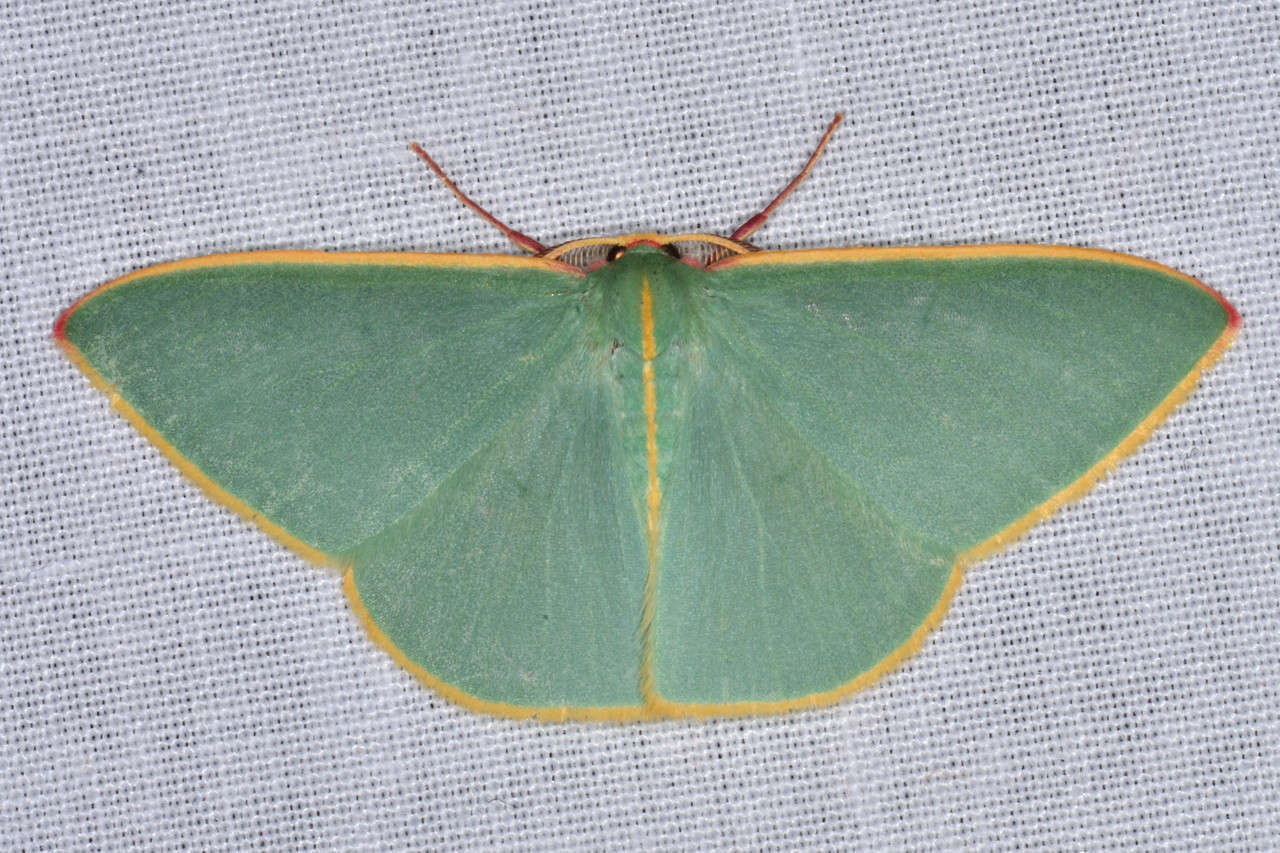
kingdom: Animalia
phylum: Arthropoda
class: Insecta
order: Lepidoptera
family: Geometridae
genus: Chlorocoma
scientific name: Chlorocoma assimilis
